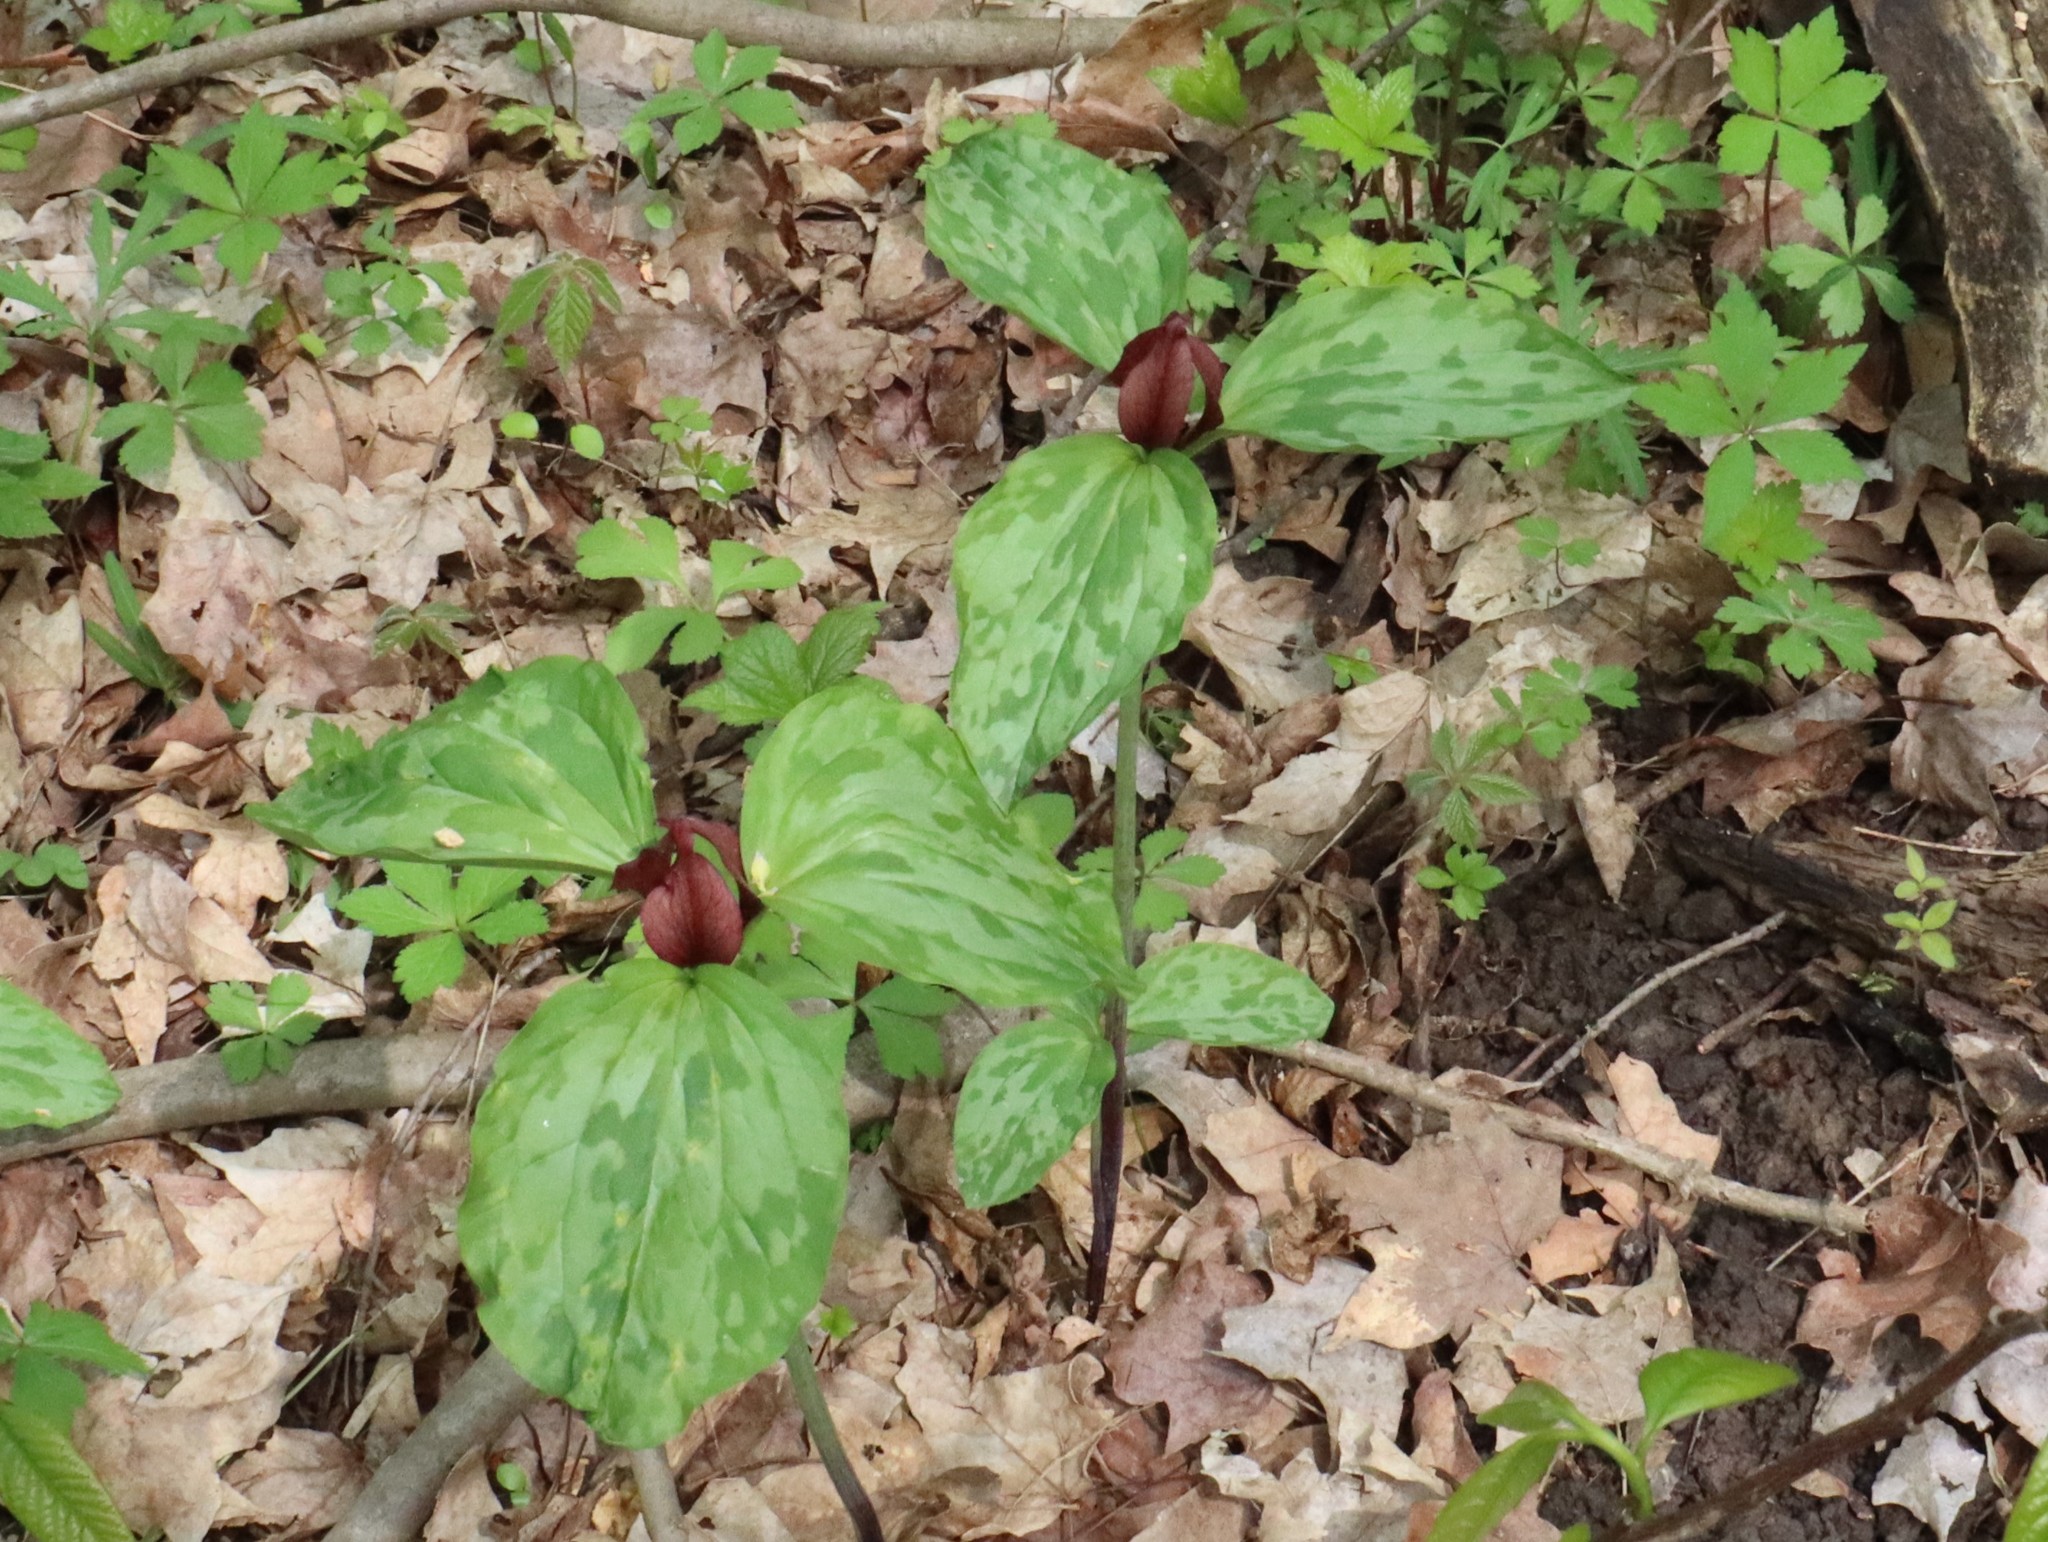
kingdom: Plantae
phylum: Tracheophyta
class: Liliopsida
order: Liliales
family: Melanthiaceae
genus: Trillium
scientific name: Trillium recurvatum
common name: Bloody butcher
